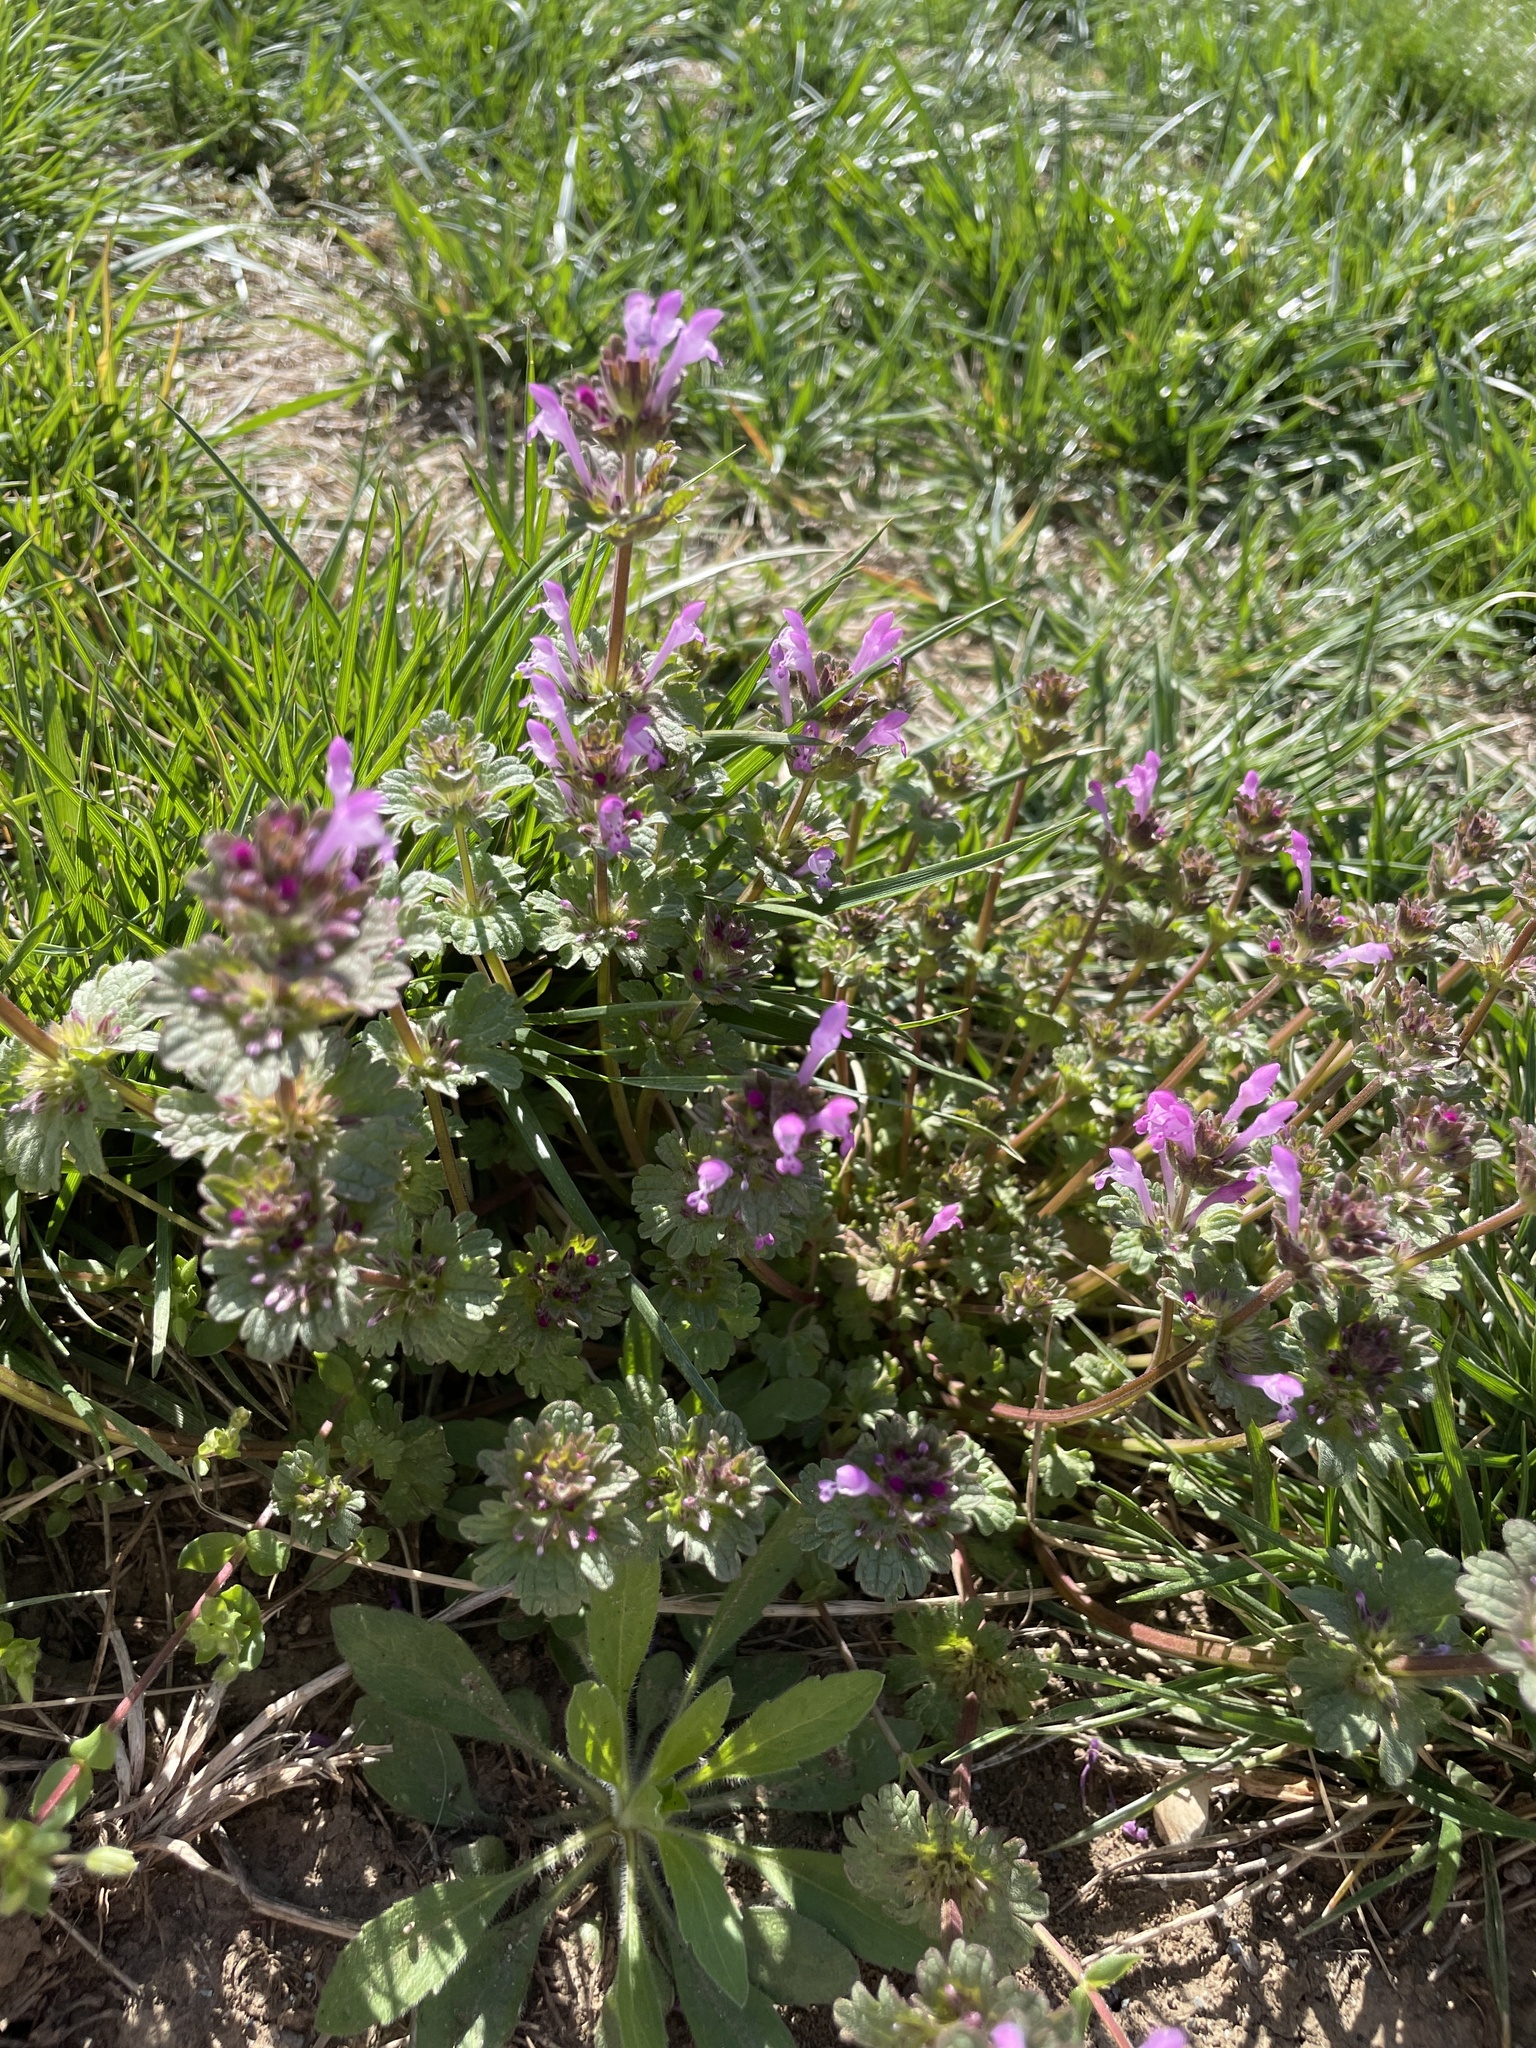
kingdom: Plantae
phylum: Tracheophyta
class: Magnoliopsida
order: Lamiales
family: Lamiaceae
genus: Lamium
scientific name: Lamium amplexicaule
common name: Henbit dead-nettle
